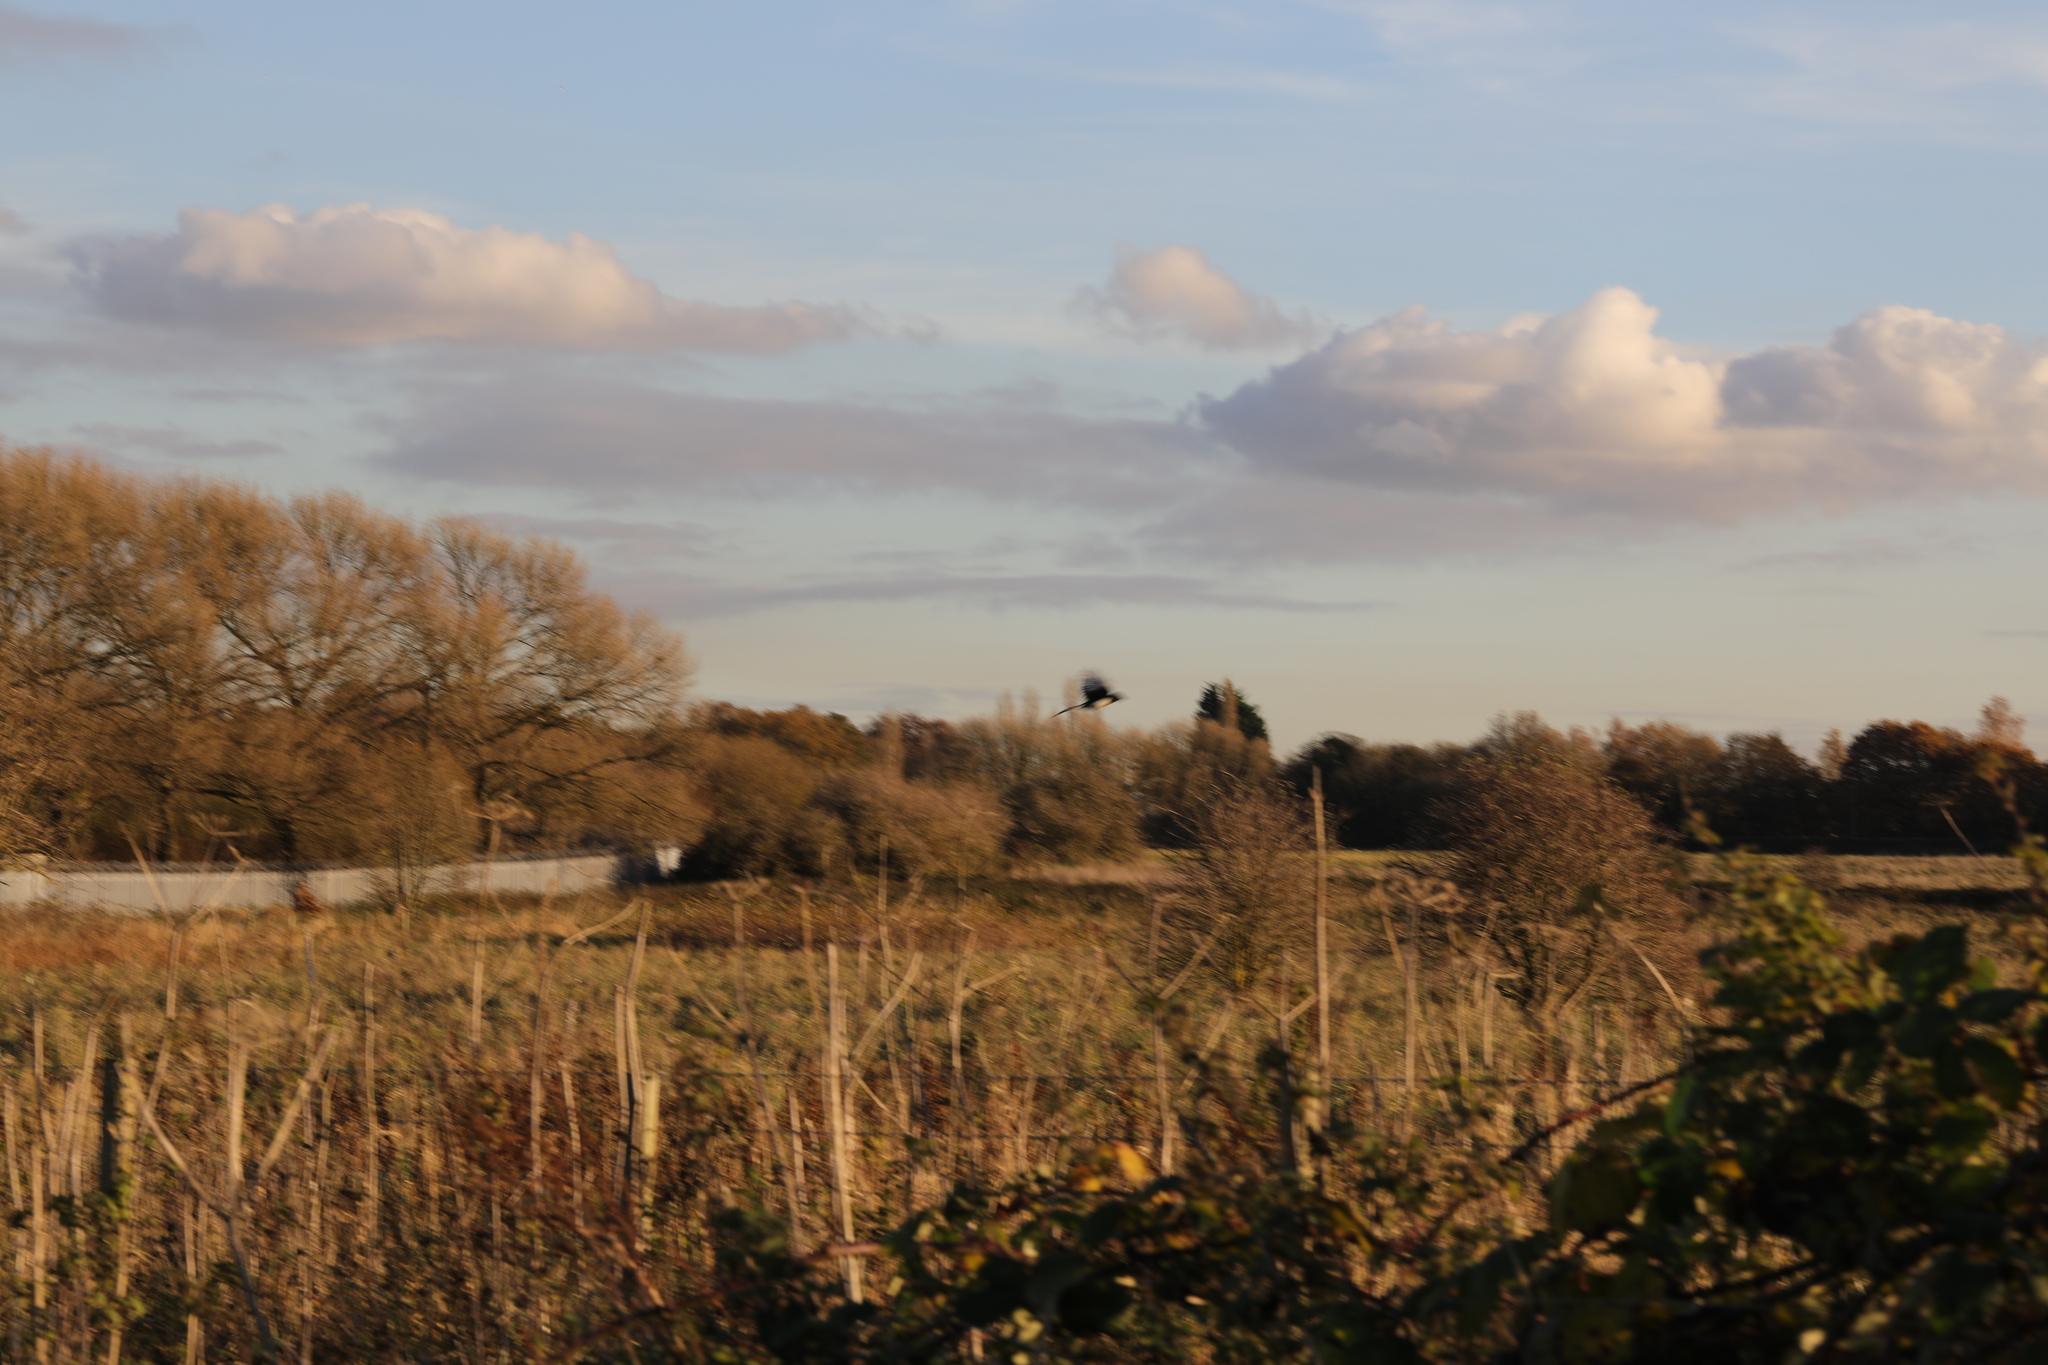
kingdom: Animalia
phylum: Chordata
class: Aves
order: Passeriformes
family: Corvidae
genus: Pica
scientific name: Pica pica
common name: Eurasian magpie
